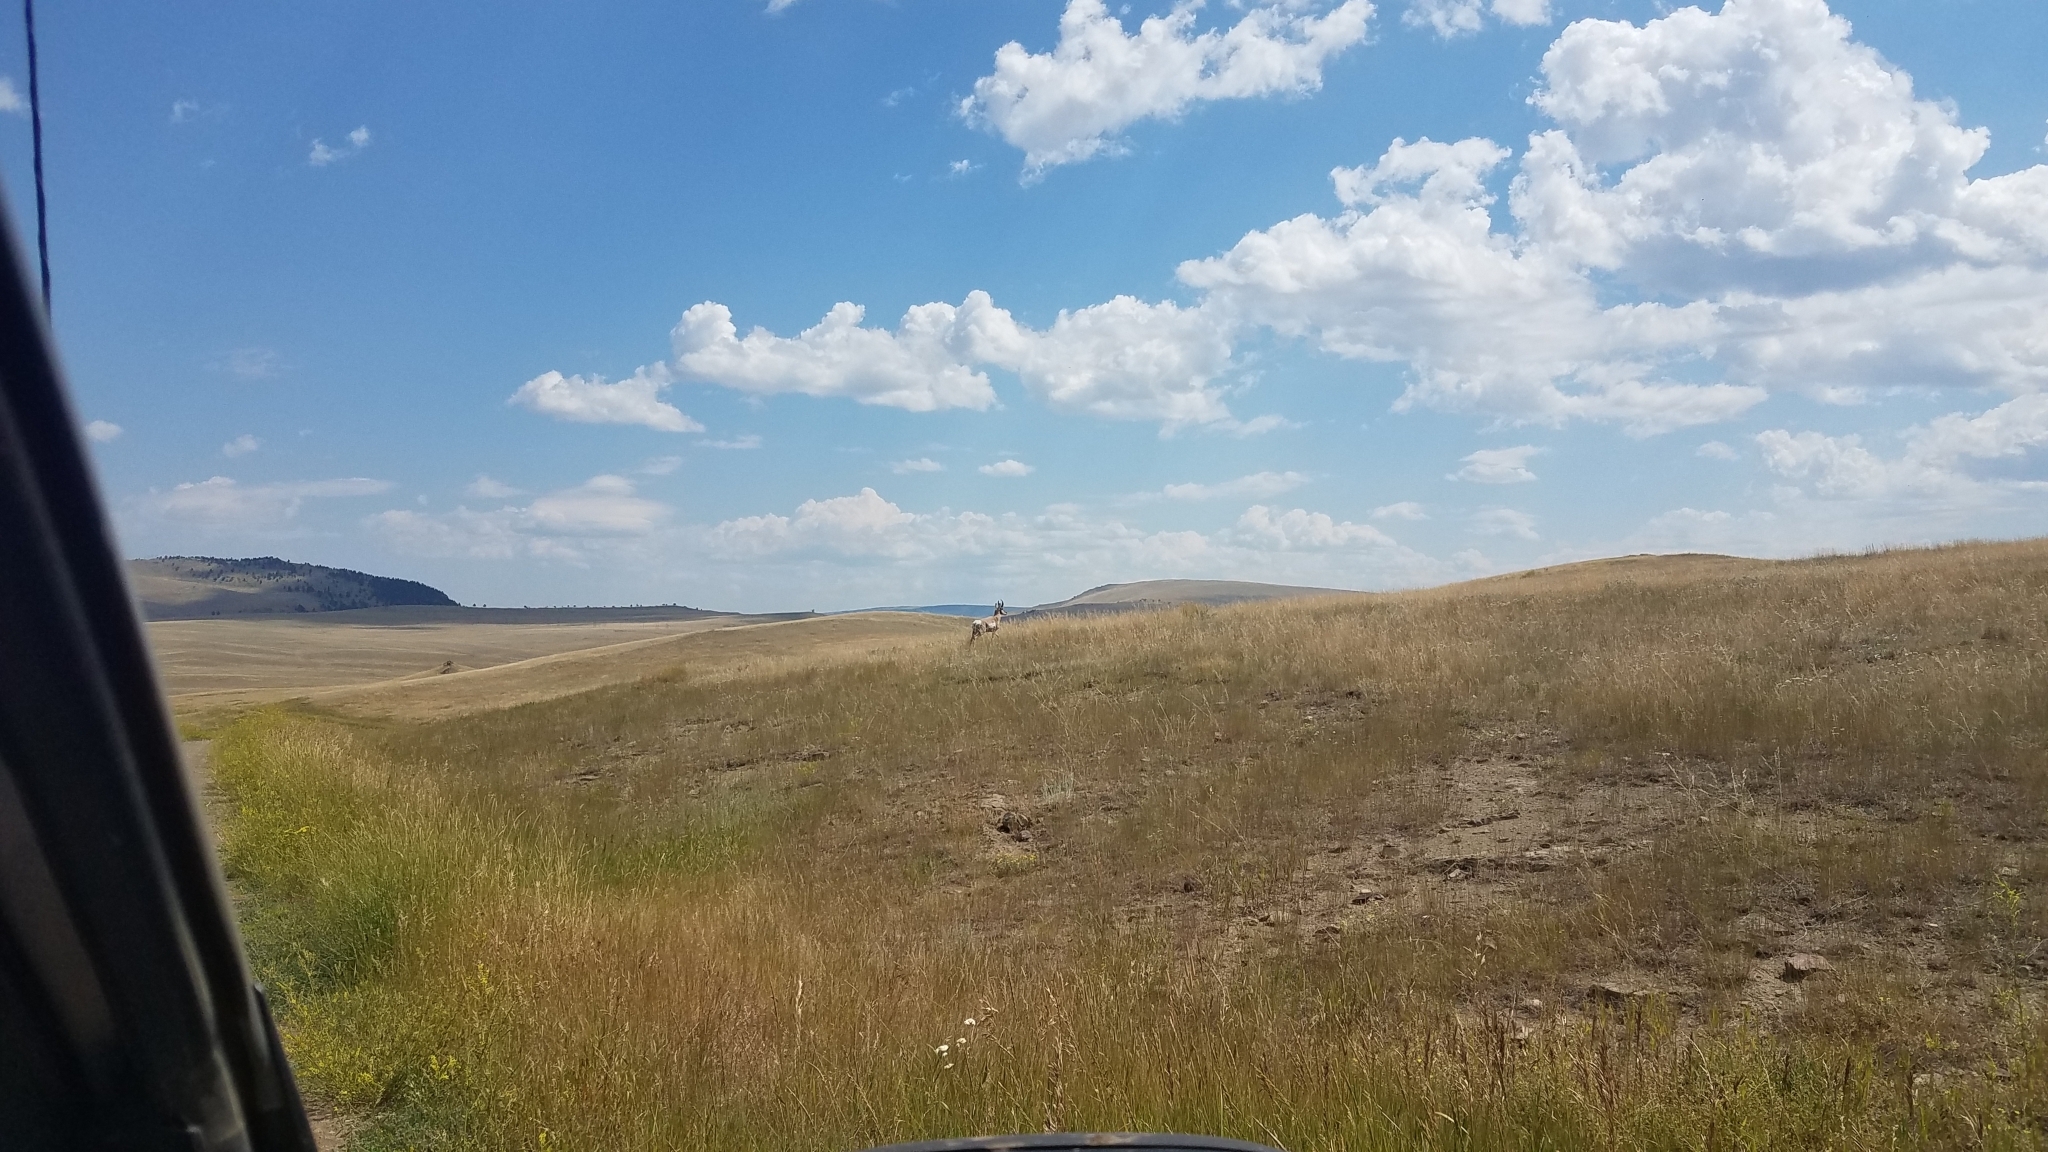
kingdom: Animalia
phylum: Chordata
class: Mammalia
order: Artiodactyla
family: Antilocapridae
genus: Antilocapra
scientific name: Antilocapra americana
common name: Pronghorn
